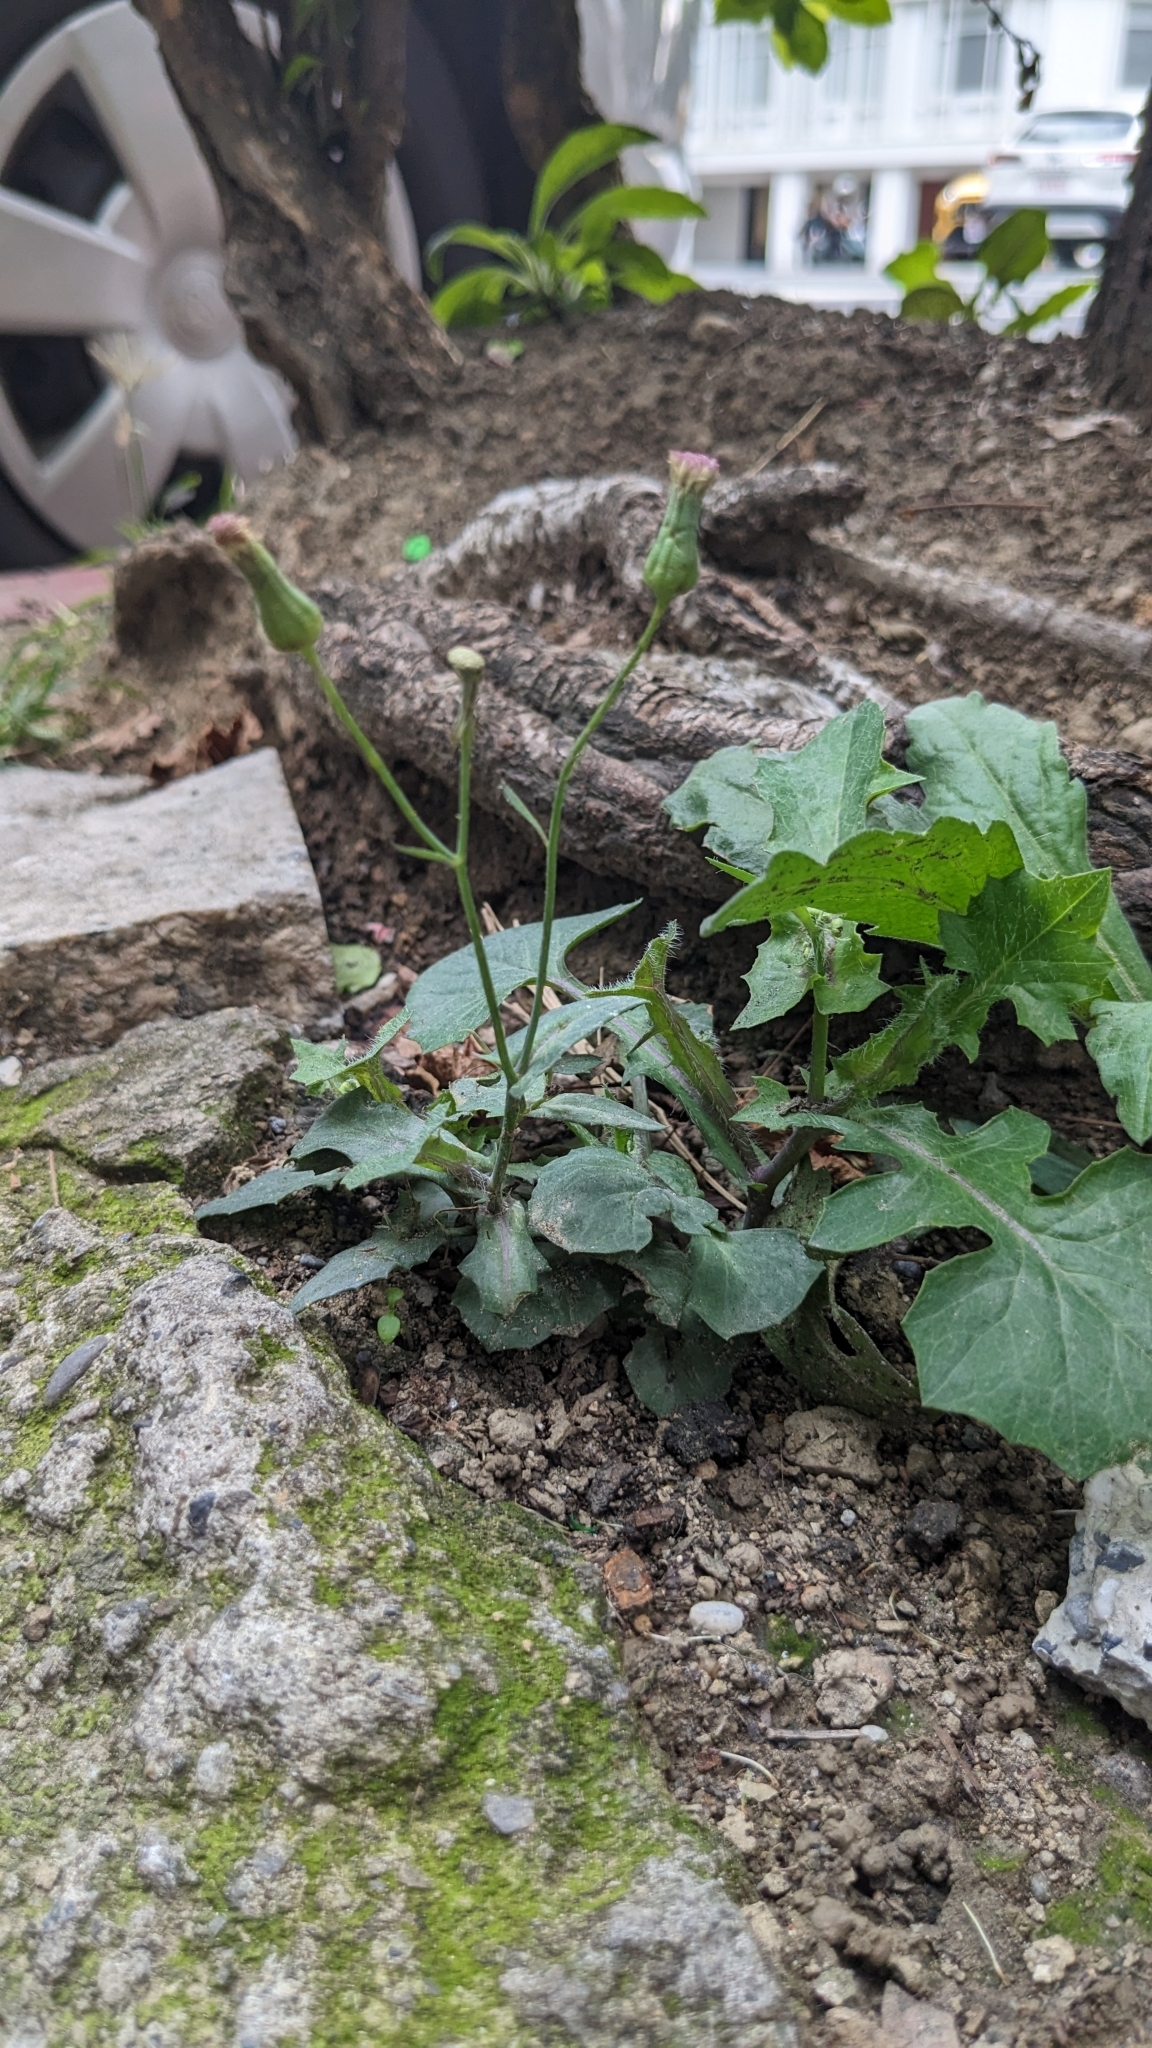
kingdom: Plantae
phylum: Tracheophyta
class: Magnoliopsida
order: Asterales
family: Asteraceae
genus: Emilia
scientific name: Emilia javanica
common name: Tassel-flower
